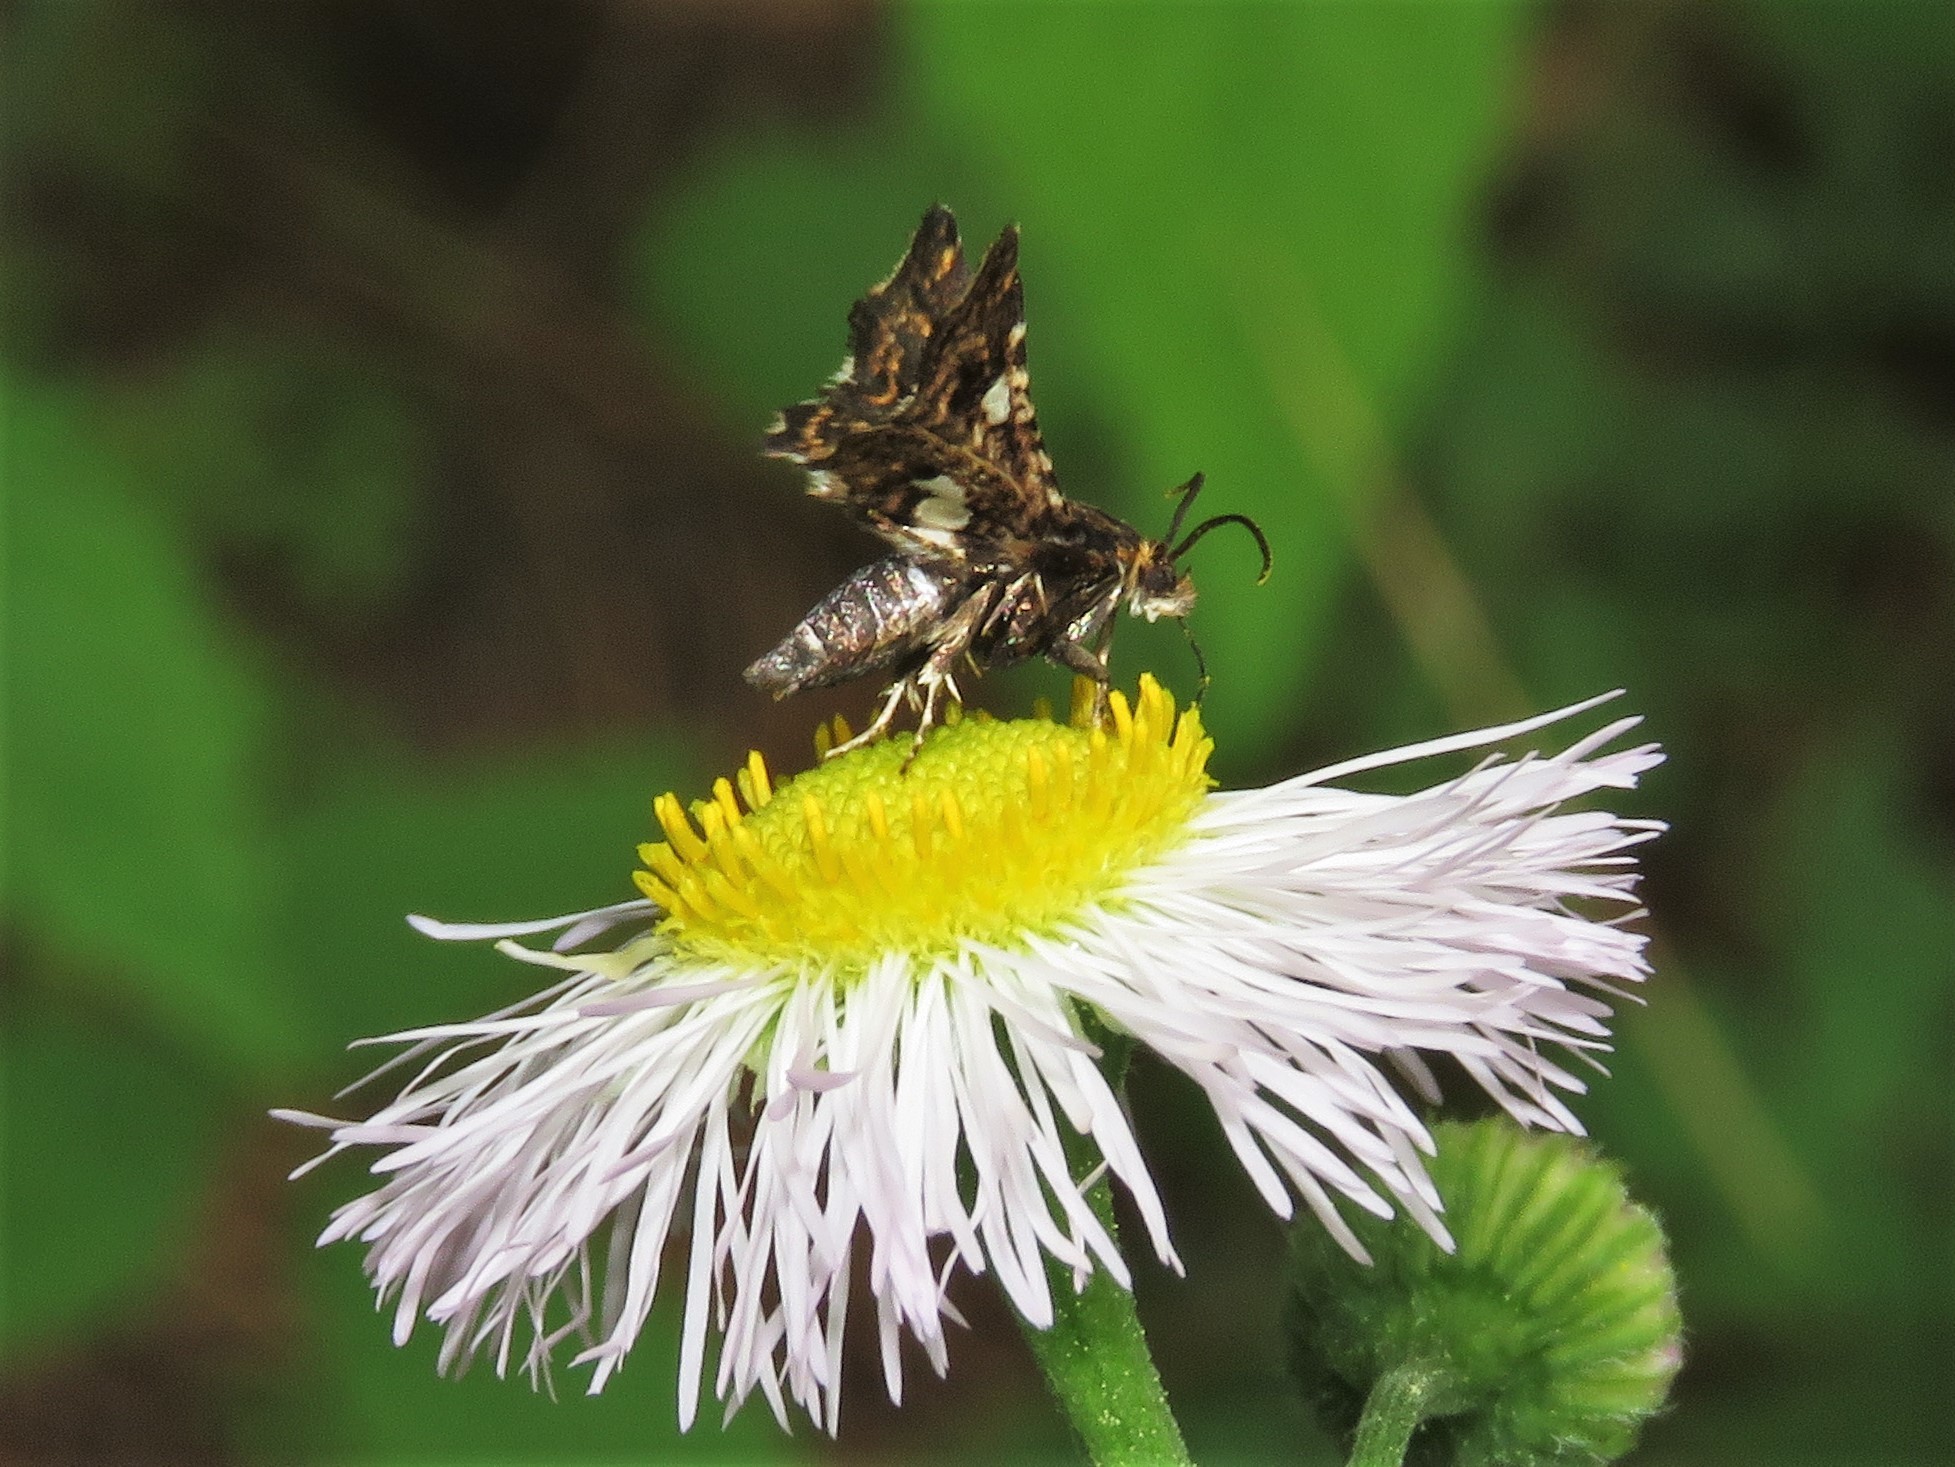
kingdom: Animalia
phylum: Arthropoda
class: Insecta
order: Lepidoptera
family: Thyrididae
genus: Thyris
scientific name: Thyris maculata
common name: Spotted thyris moth
